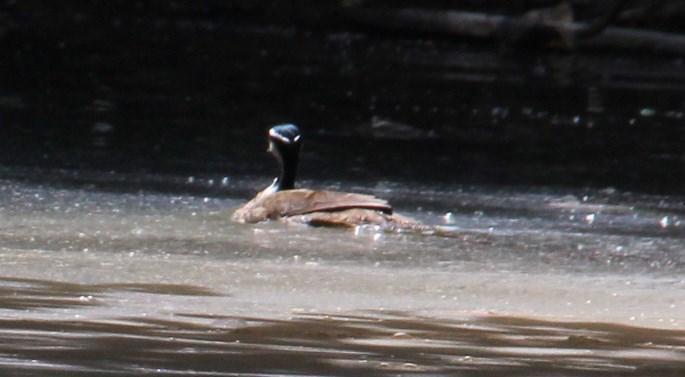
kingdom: Animalia
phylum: Chordata
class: Aves
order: Gruiformes
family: Heliornithidae
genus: Heliornis
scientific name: Heliornis fulica
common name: Sungrebe
